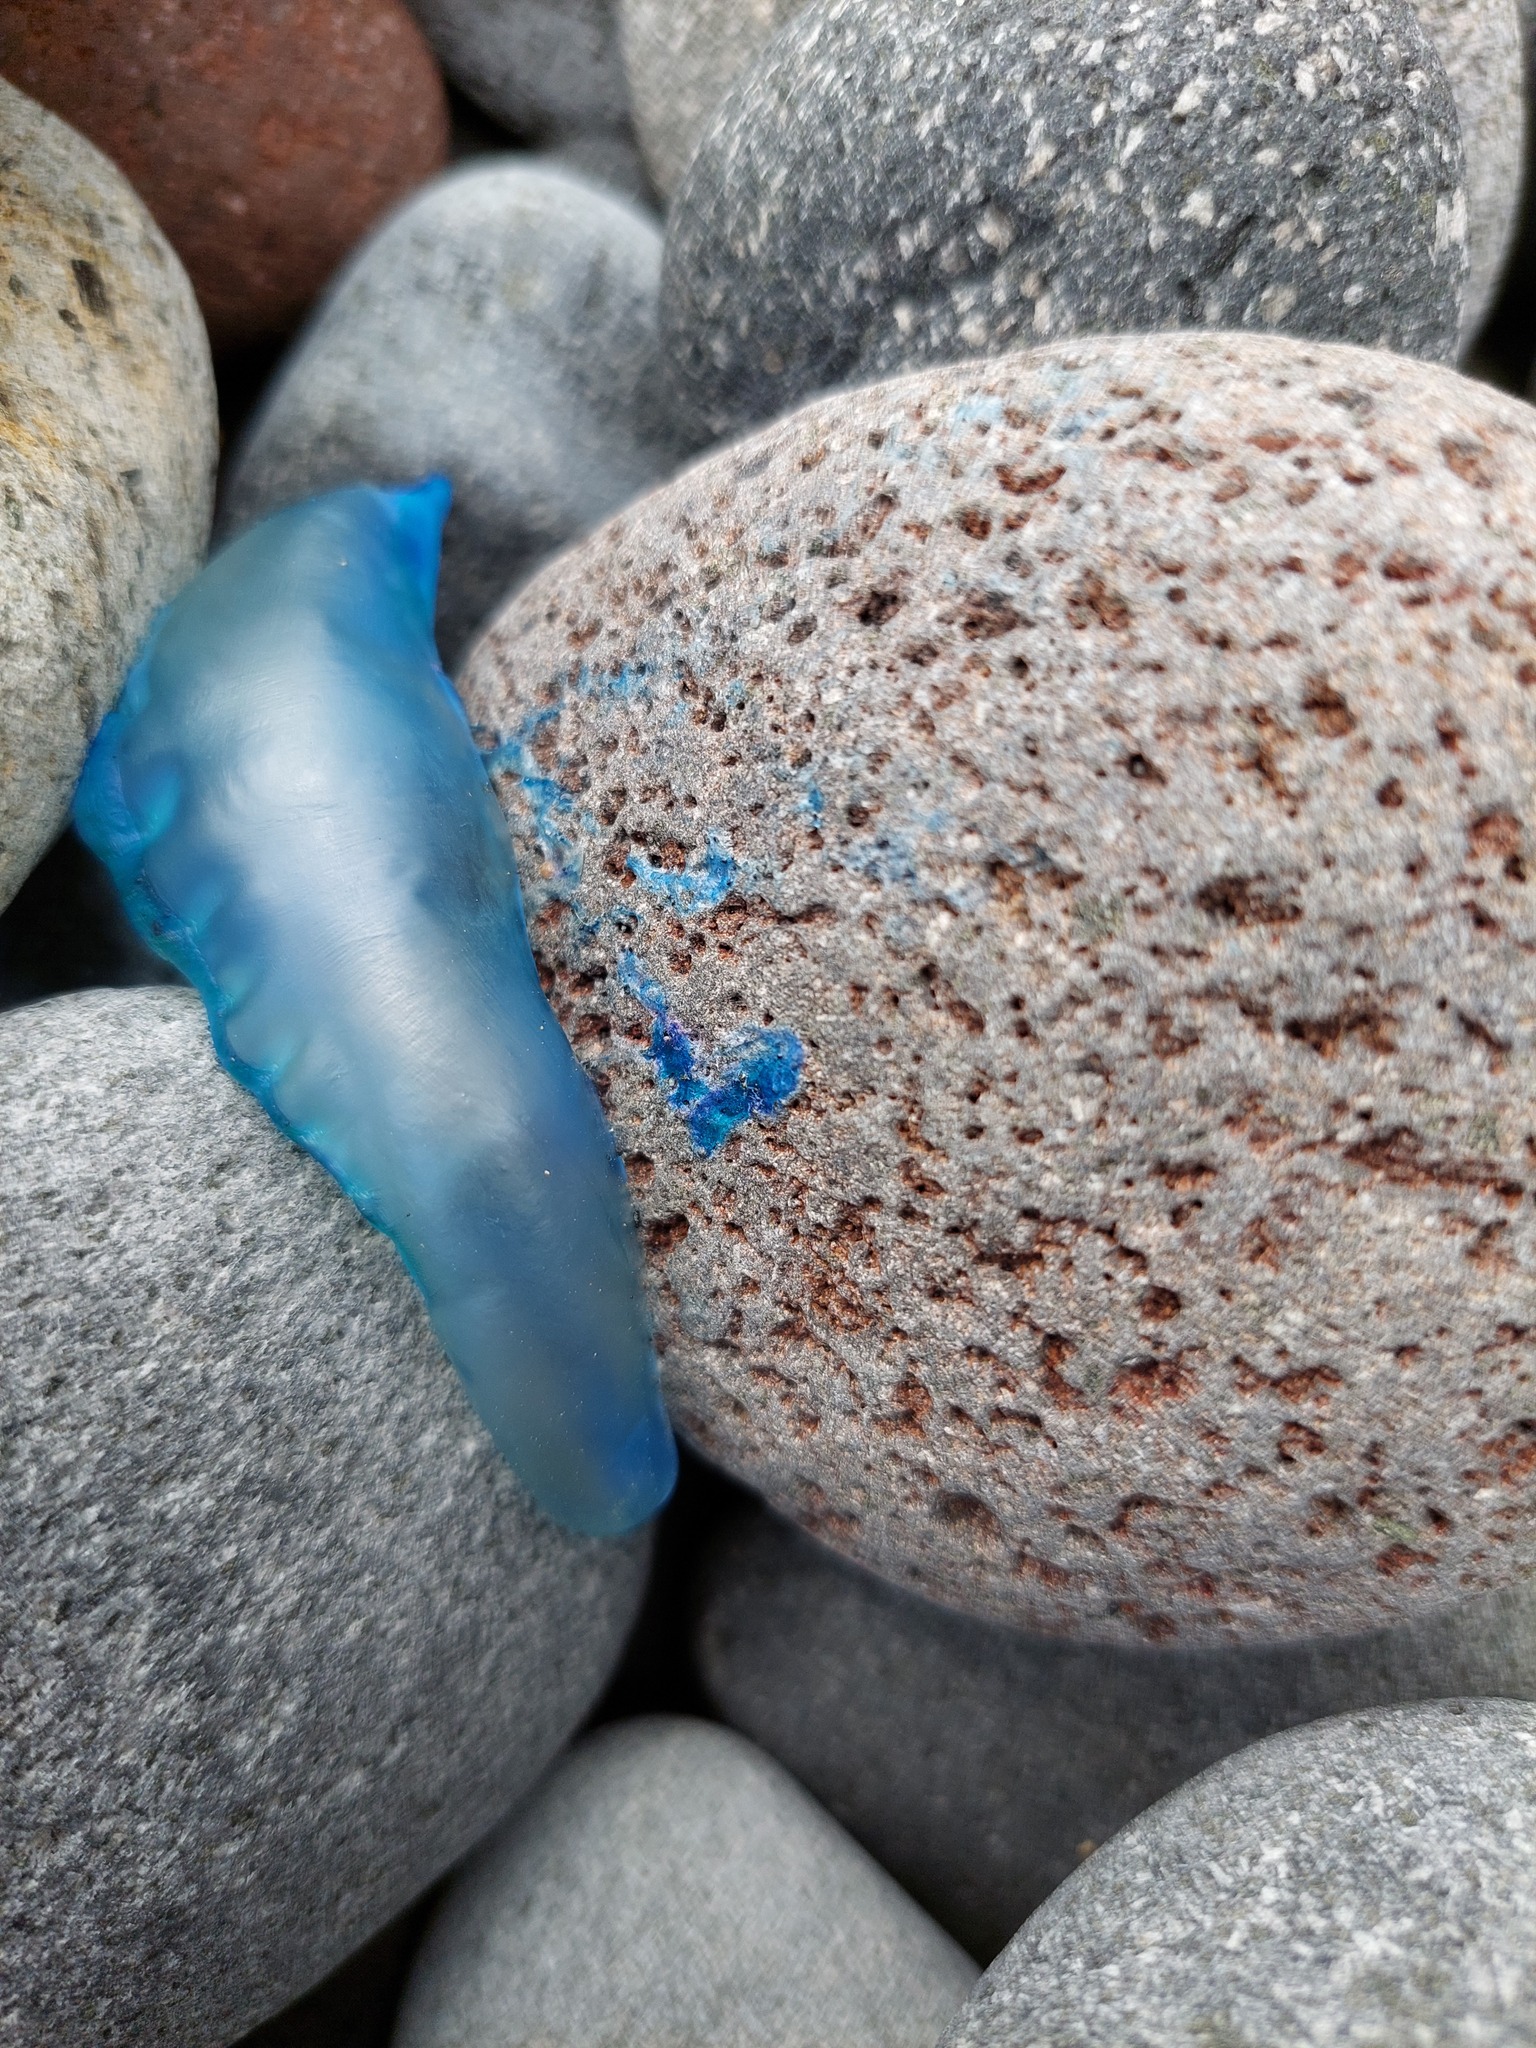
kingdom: Animalia
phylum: Cnidaria
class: Hydrozoa
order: Siphonophorae
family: Physaliidae
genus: Physalia
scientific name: Physalia physalis
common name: Portuguese man-of-war
